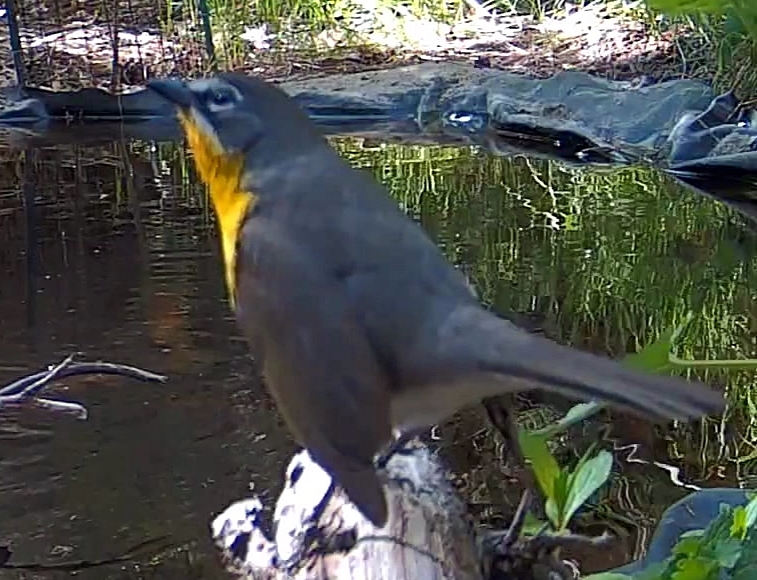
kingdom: Animalia
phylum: Chordata
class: Aves
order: Passeriformes
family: Parulidae
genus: Icteria
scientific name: Icteria virens
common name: Yellow-breasted chat
